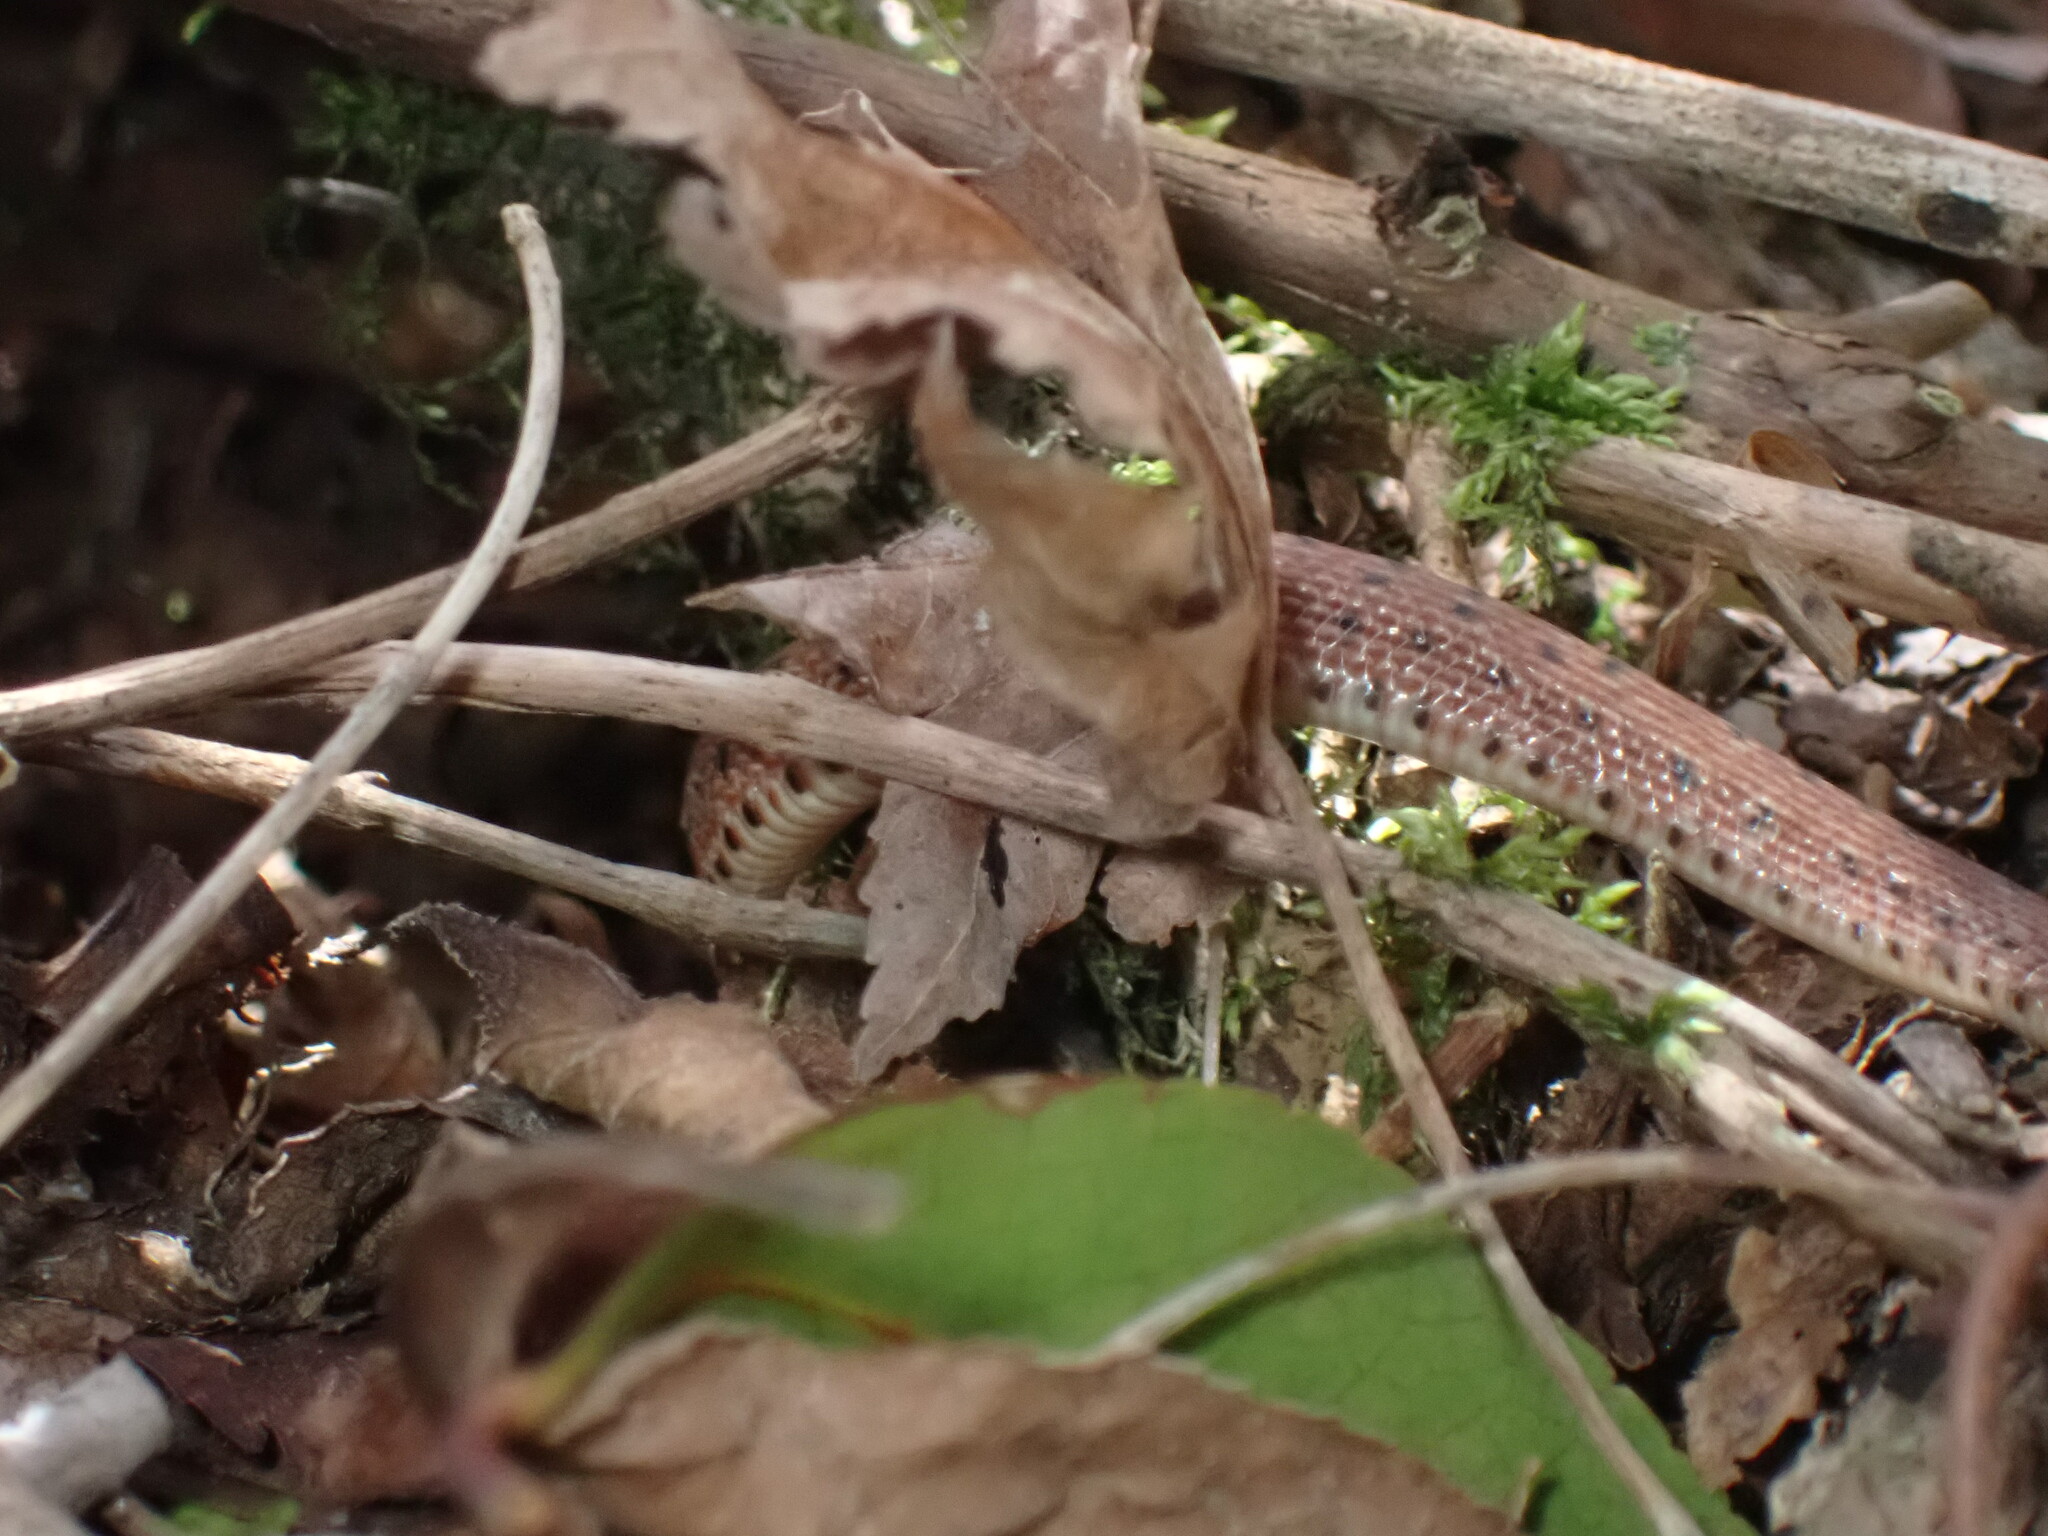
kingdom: Animalia
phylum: Chordata
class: Squamata
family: Colubridae
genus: Euprepiophis
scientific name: Euprepiophis conspicillata
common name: Burrowing ratsnake
